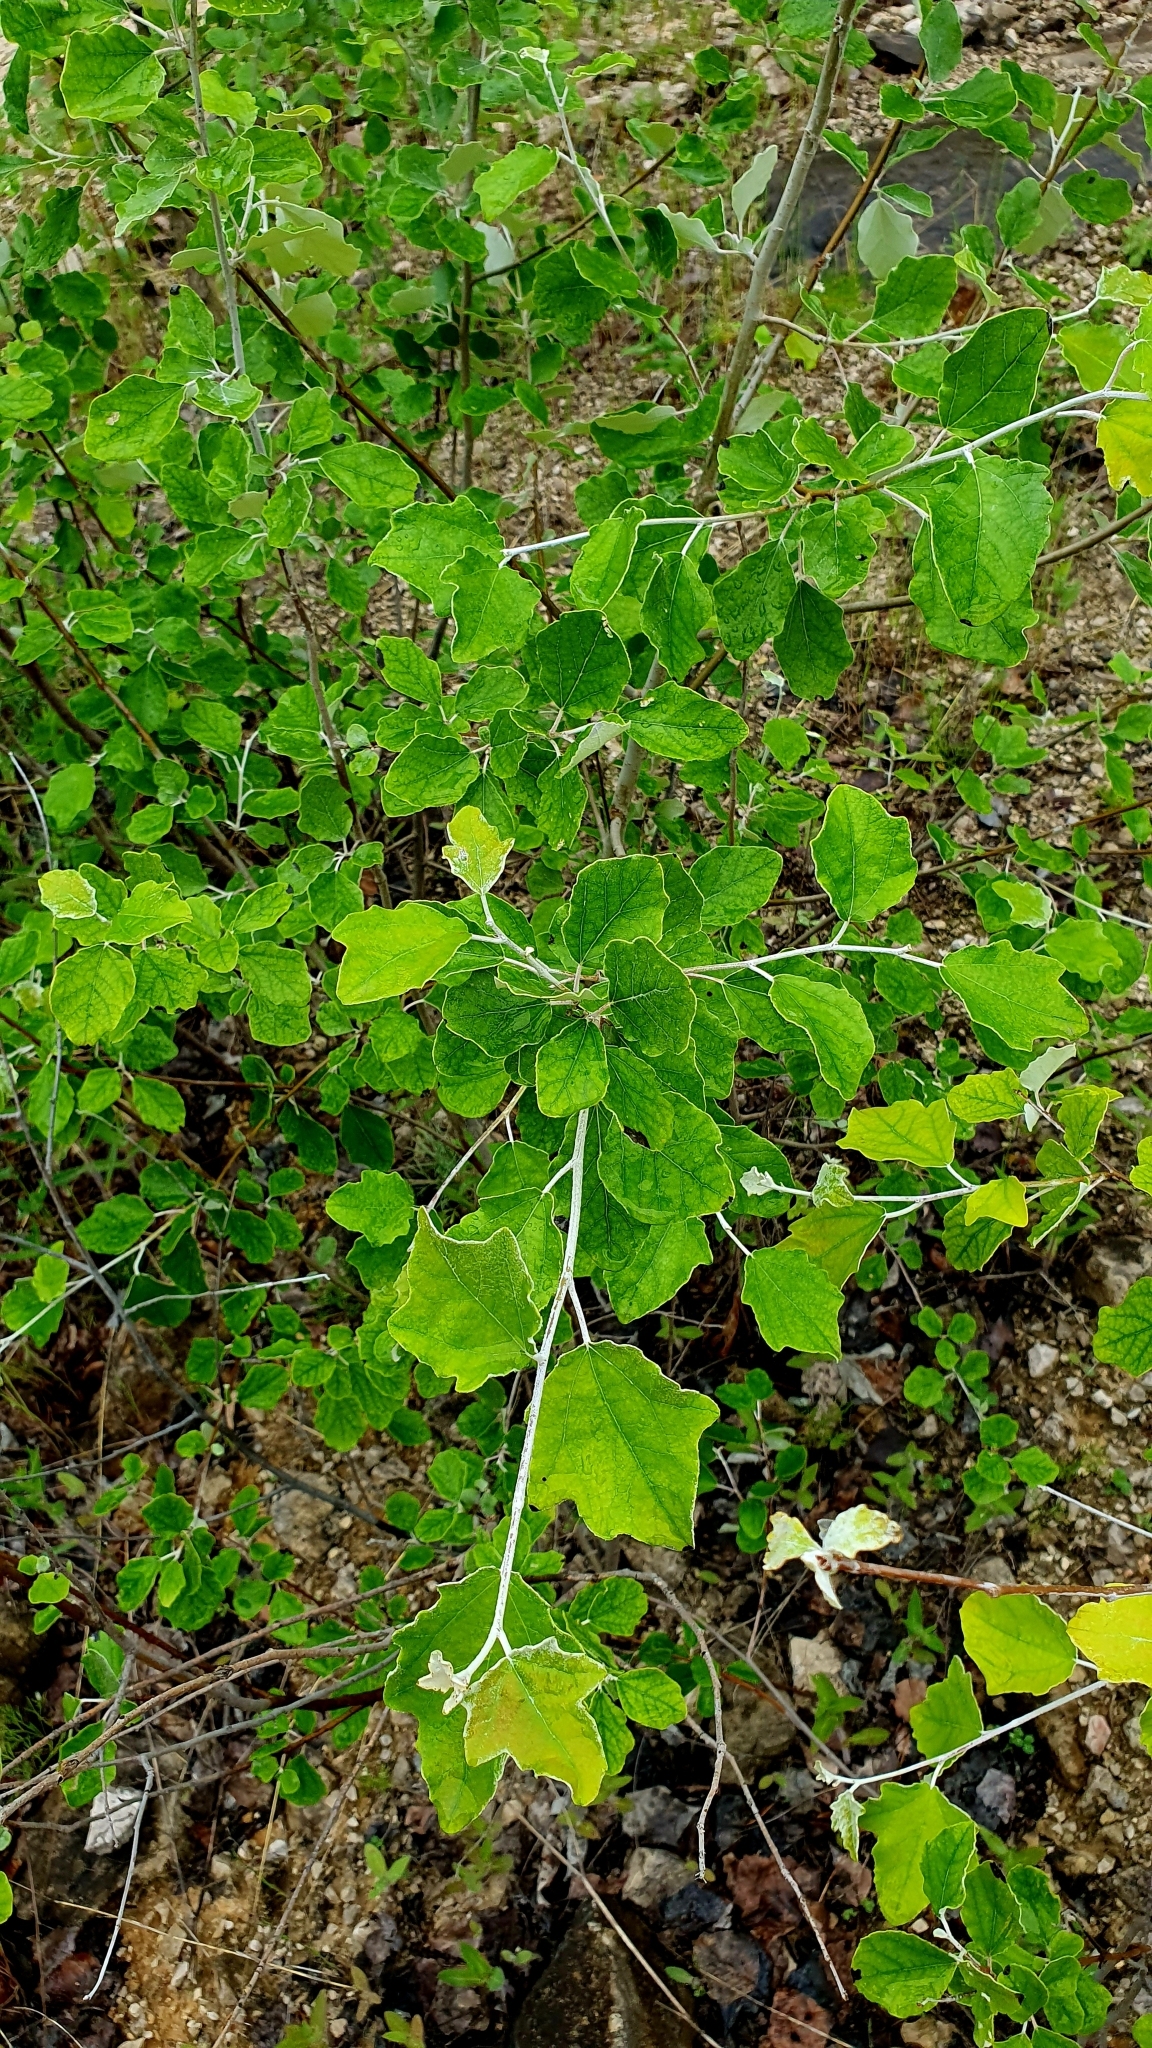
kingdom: Plantae
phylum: Tracheophyta
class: Magnoliopsida
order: Malpighiales
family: Salicaceae
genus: Populus
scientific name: Populus alba
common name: White poplar
